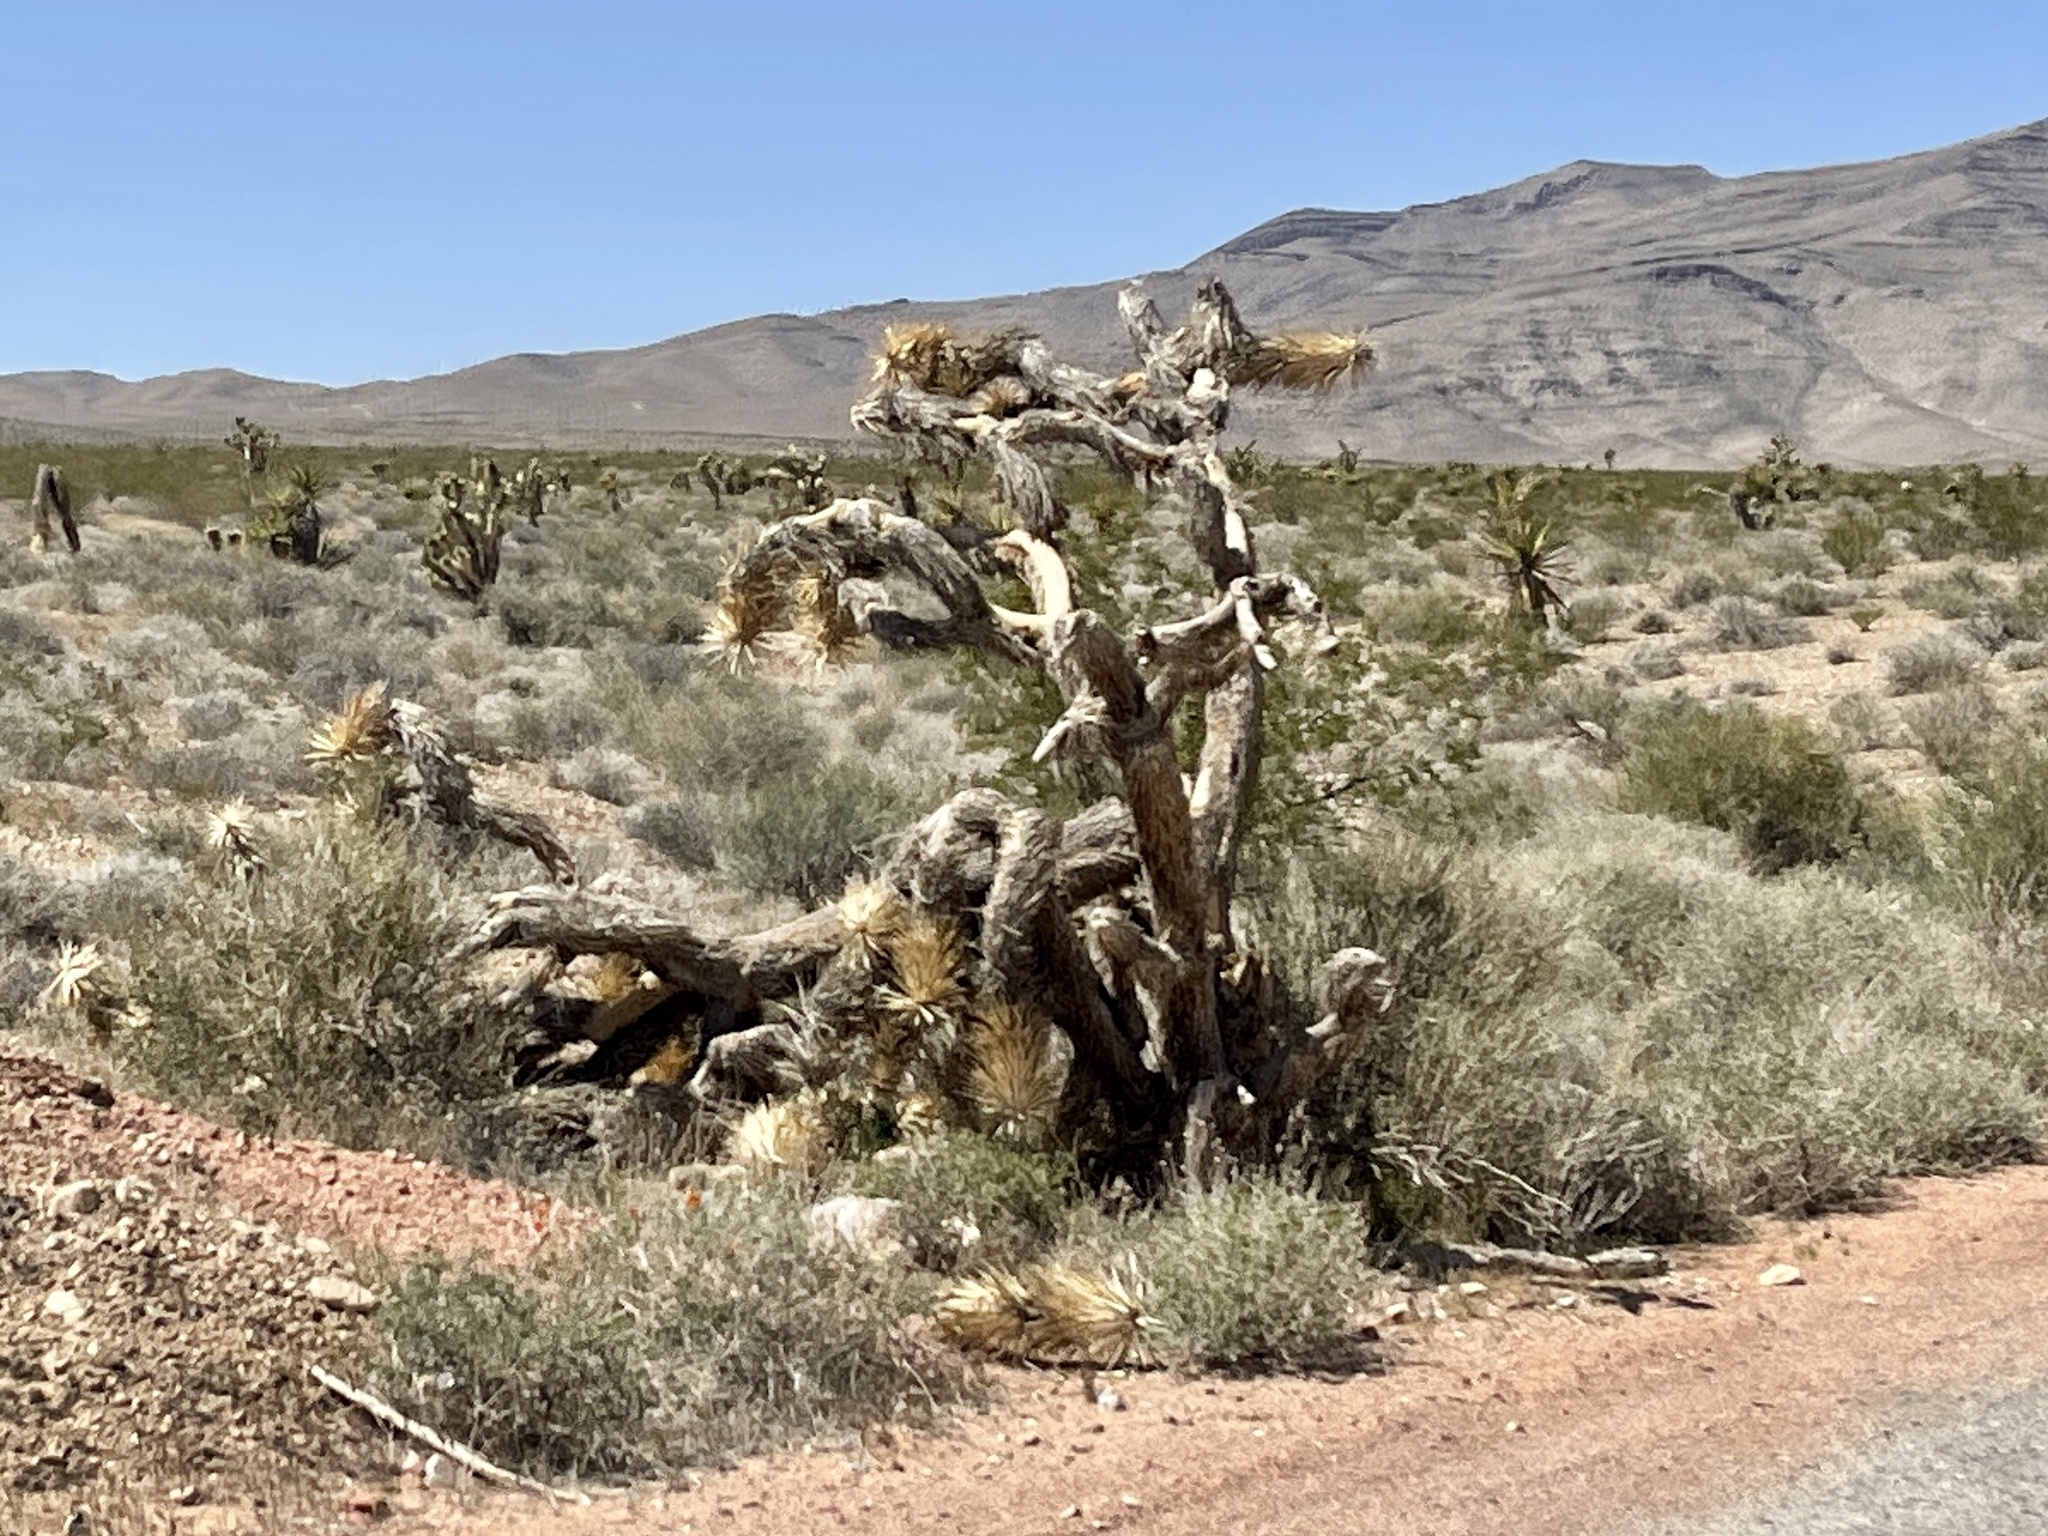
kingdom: Plantae
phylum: Tracheophyta
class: Liliopsida
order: Asparagales
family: Asparagaceae
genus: Yucca
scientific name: Yucca brevifolia
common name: Joshua tree
